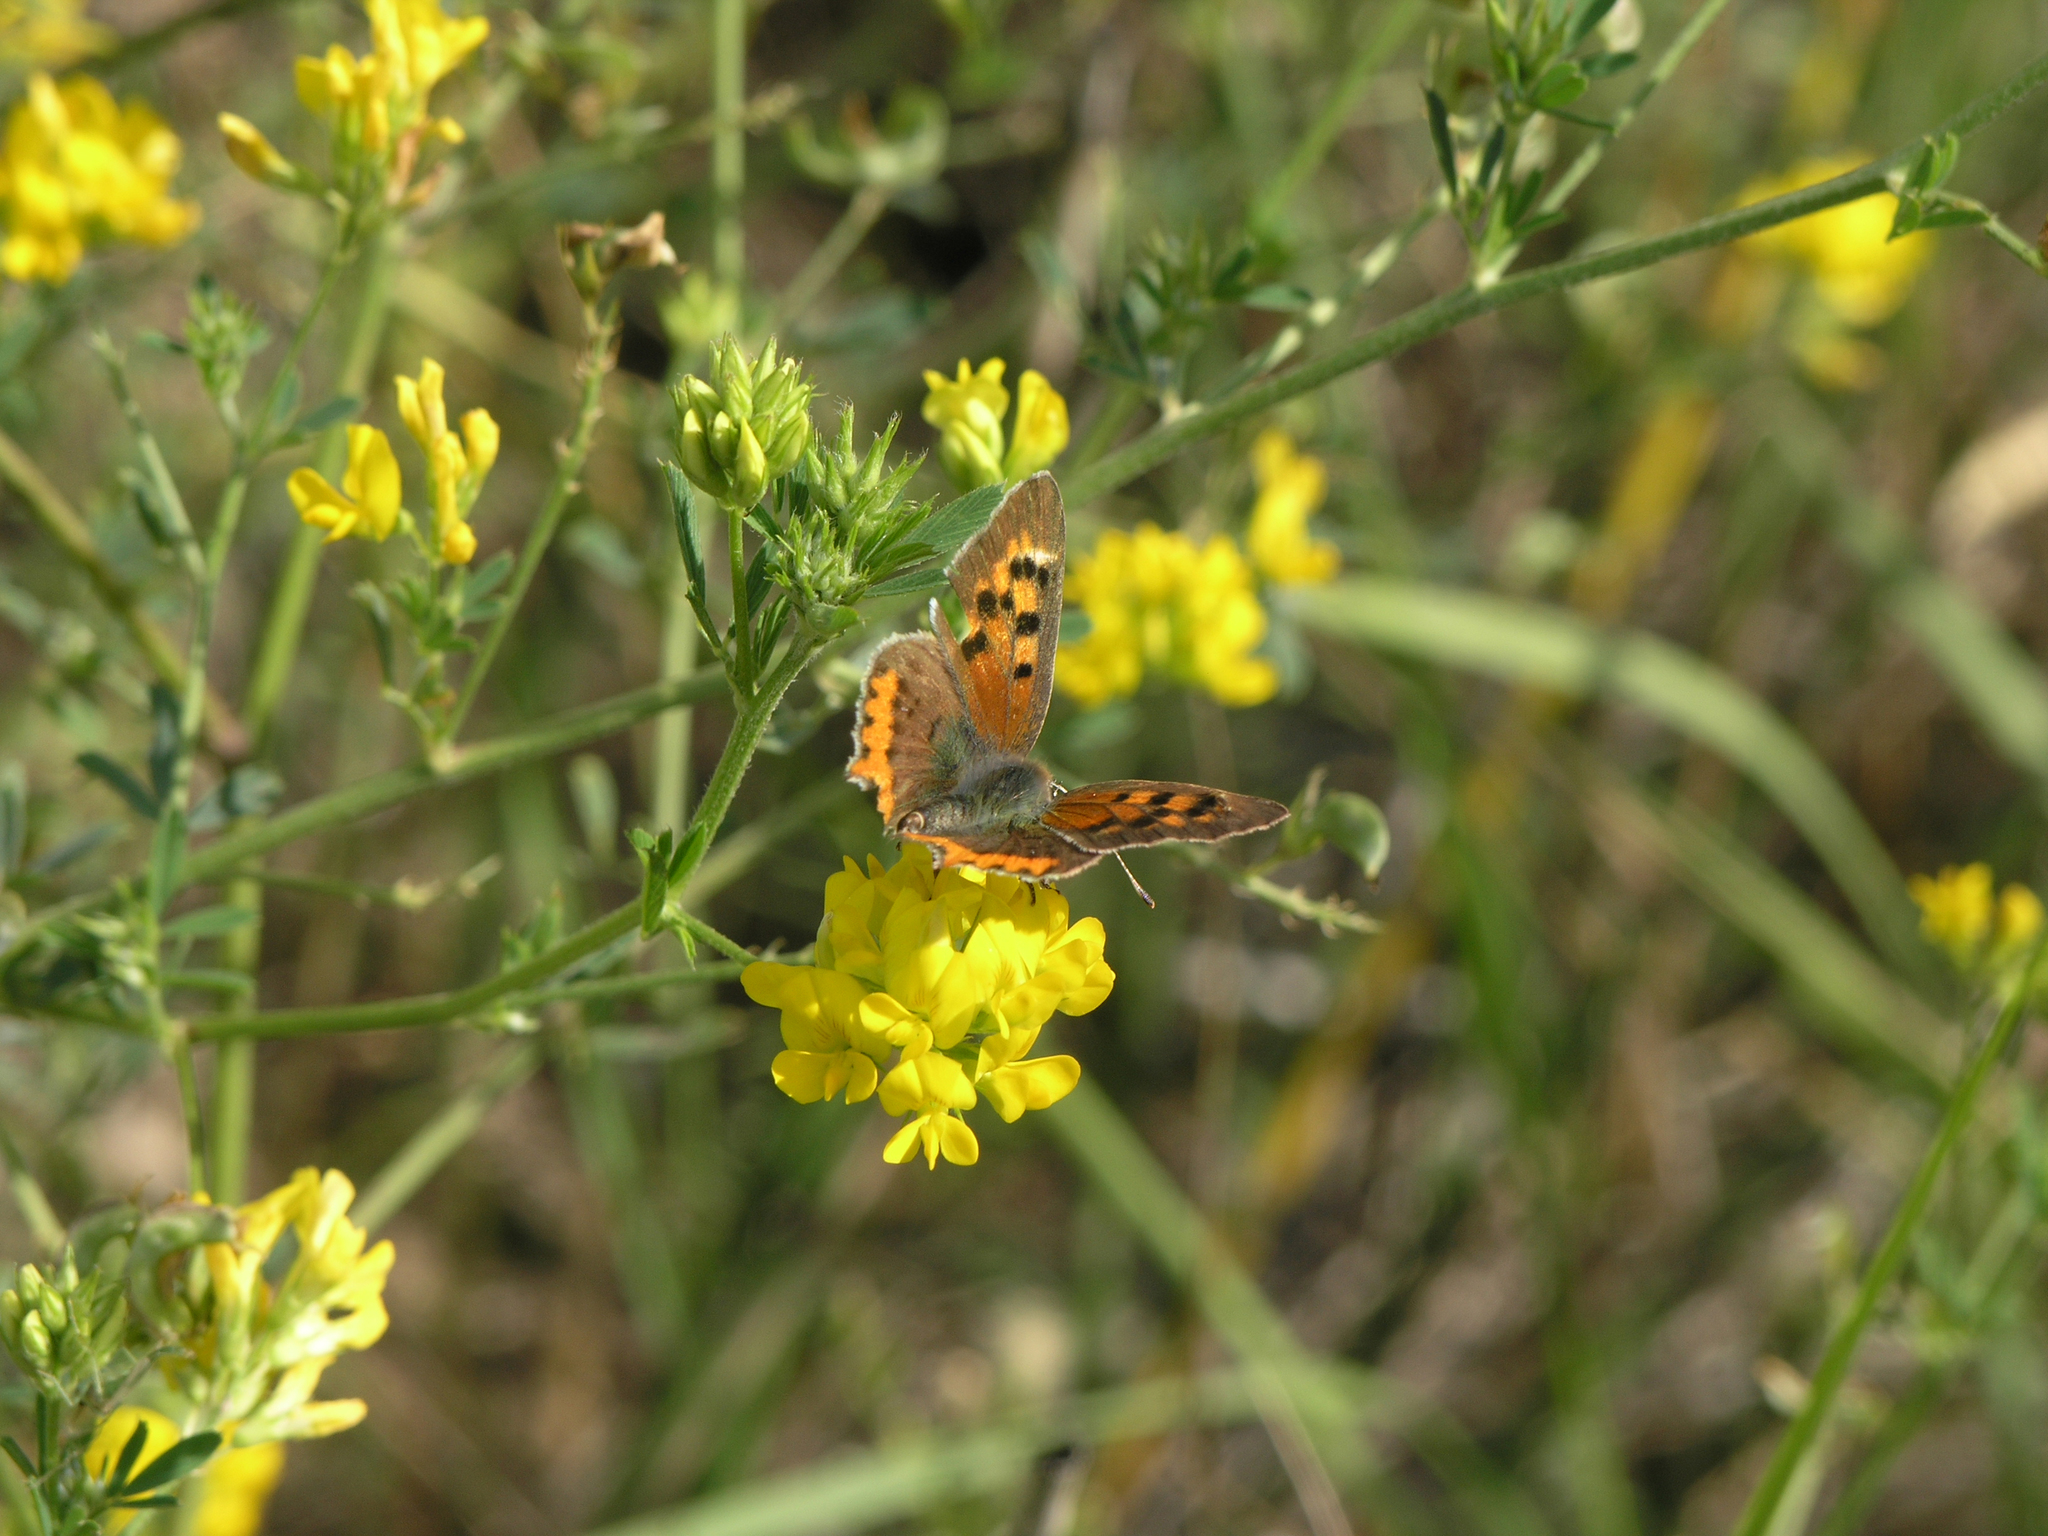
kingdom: Plantae
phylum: Tracheophyta
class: Magnoliopsida
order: Fabales
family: Fabaceae
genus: Medicago
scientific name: Medicago falcata
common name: Sickle medick
